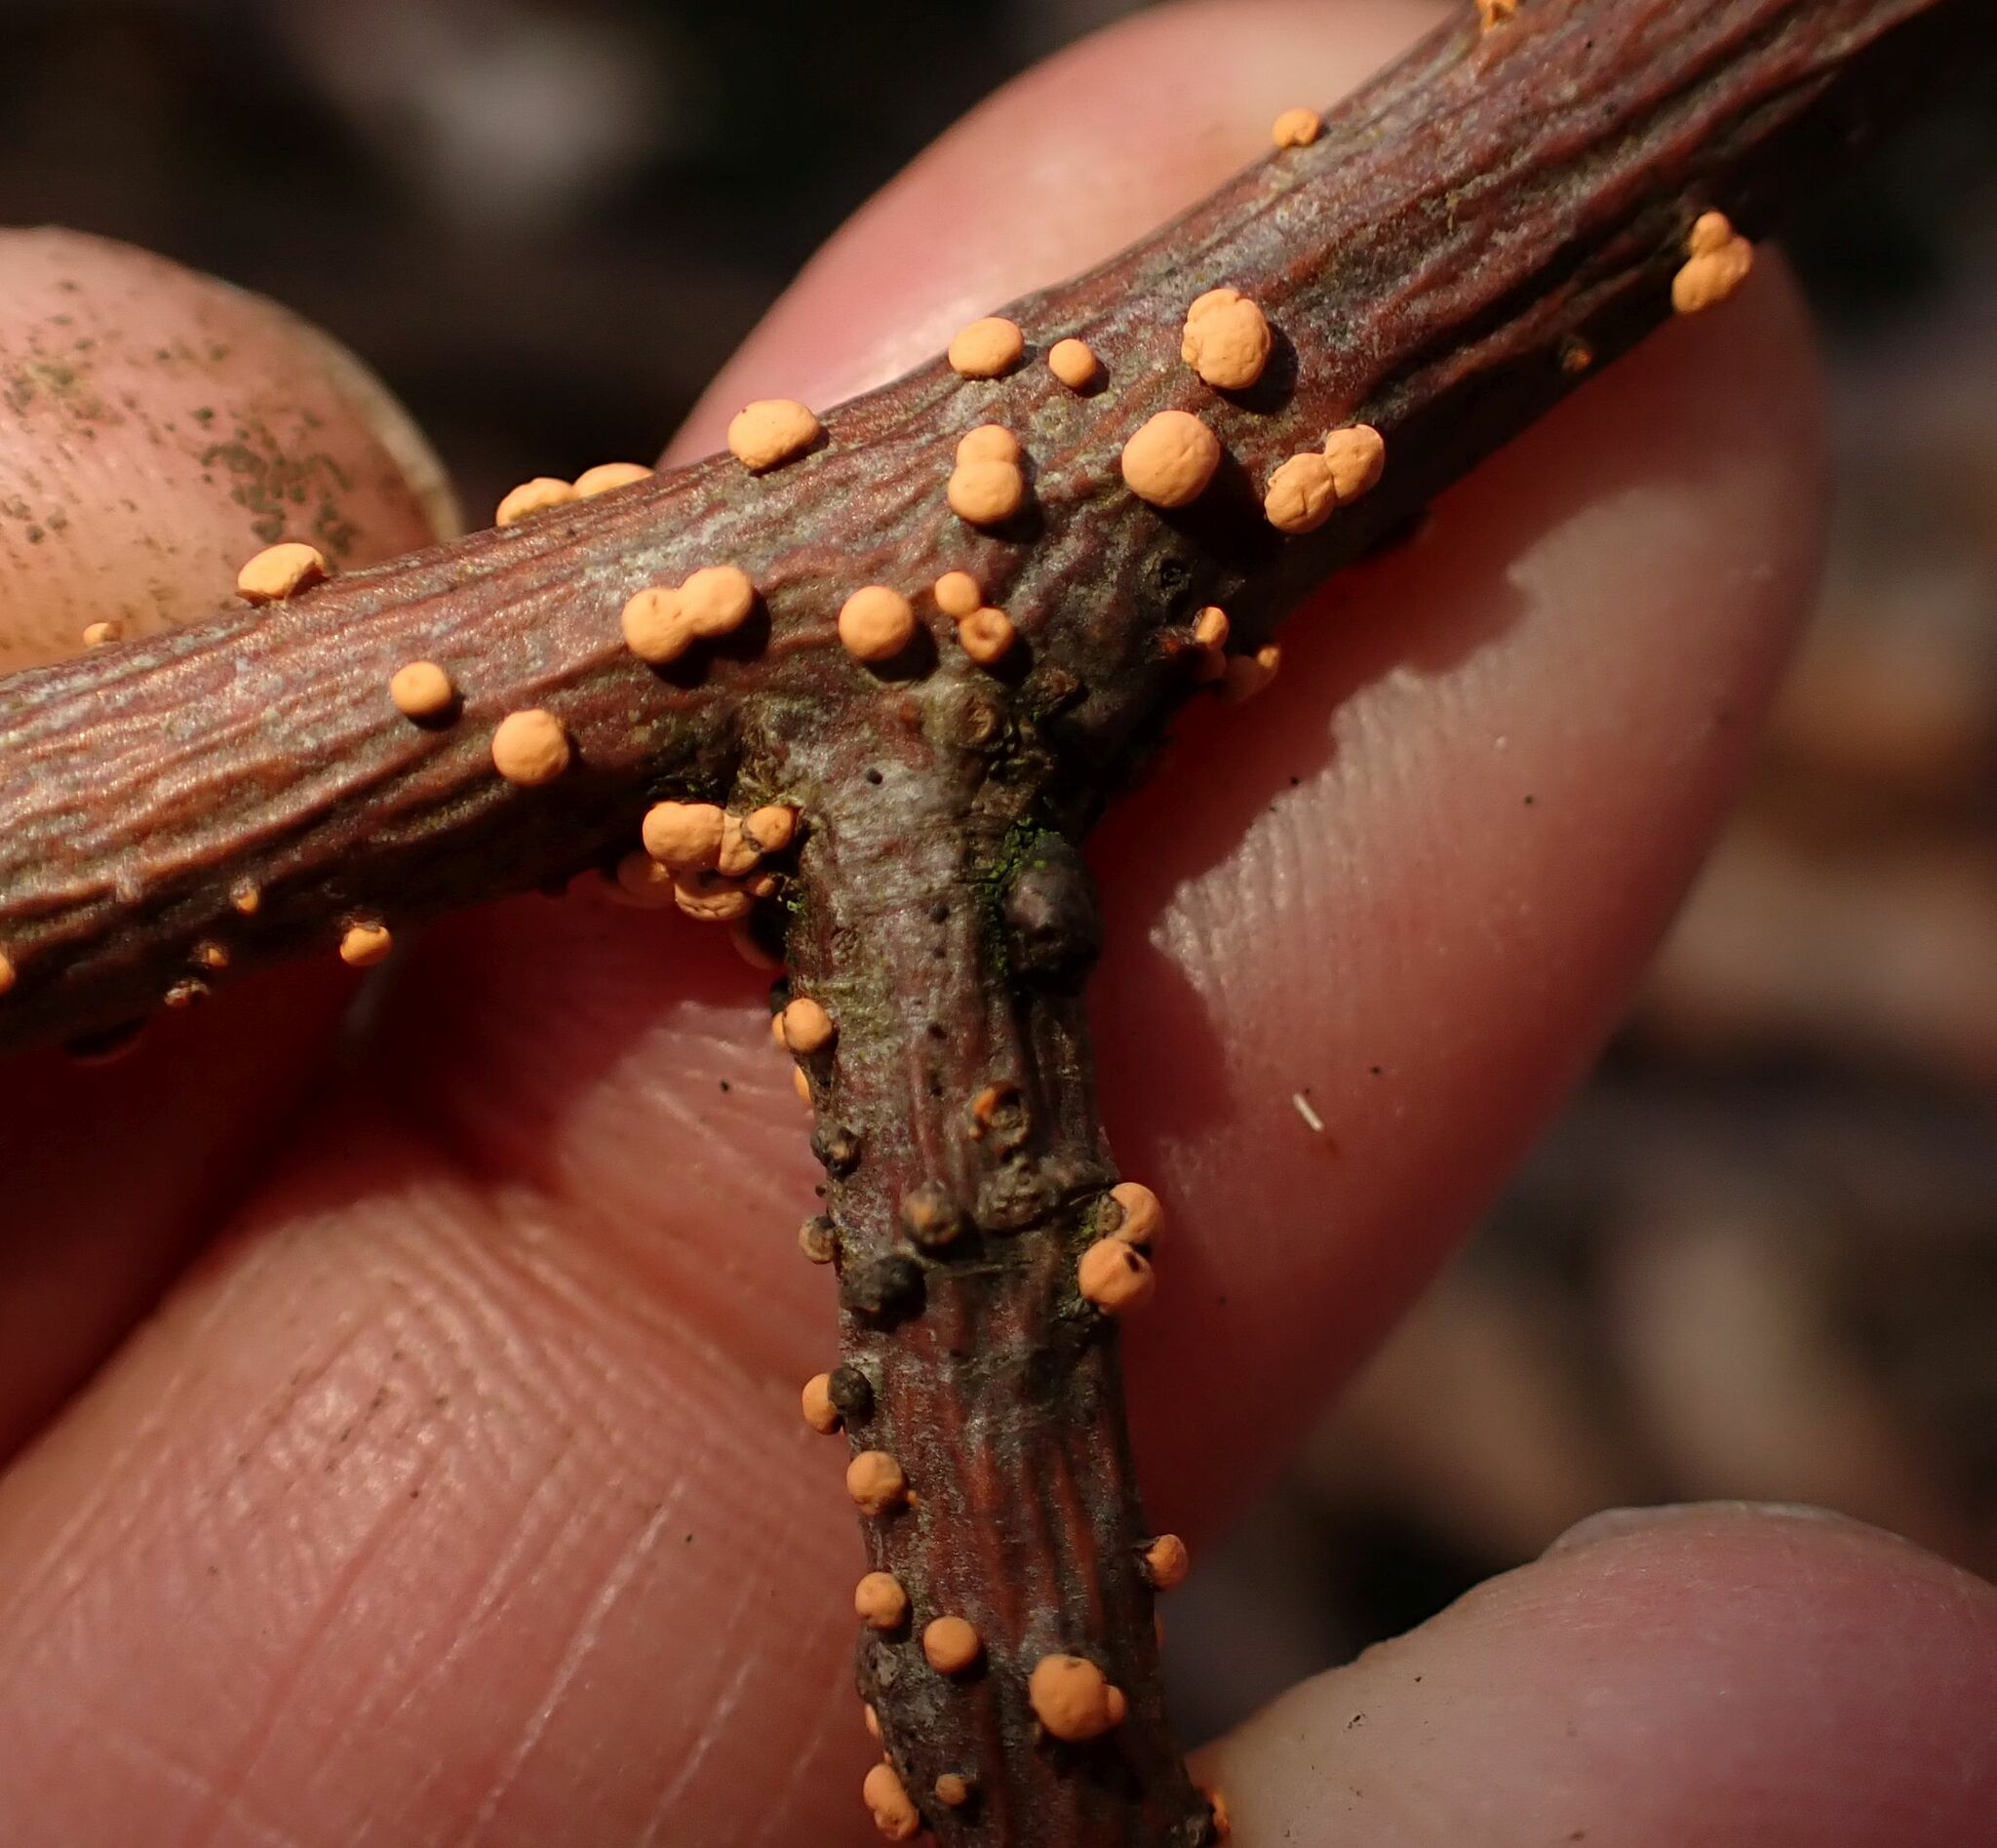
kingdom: Fungi
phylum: Ascomycota
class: Sordariomycetes
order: Hypocreales
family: Nectriaceae
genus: Nectria
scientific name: Nectria cinnabarina
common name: Coral spot
